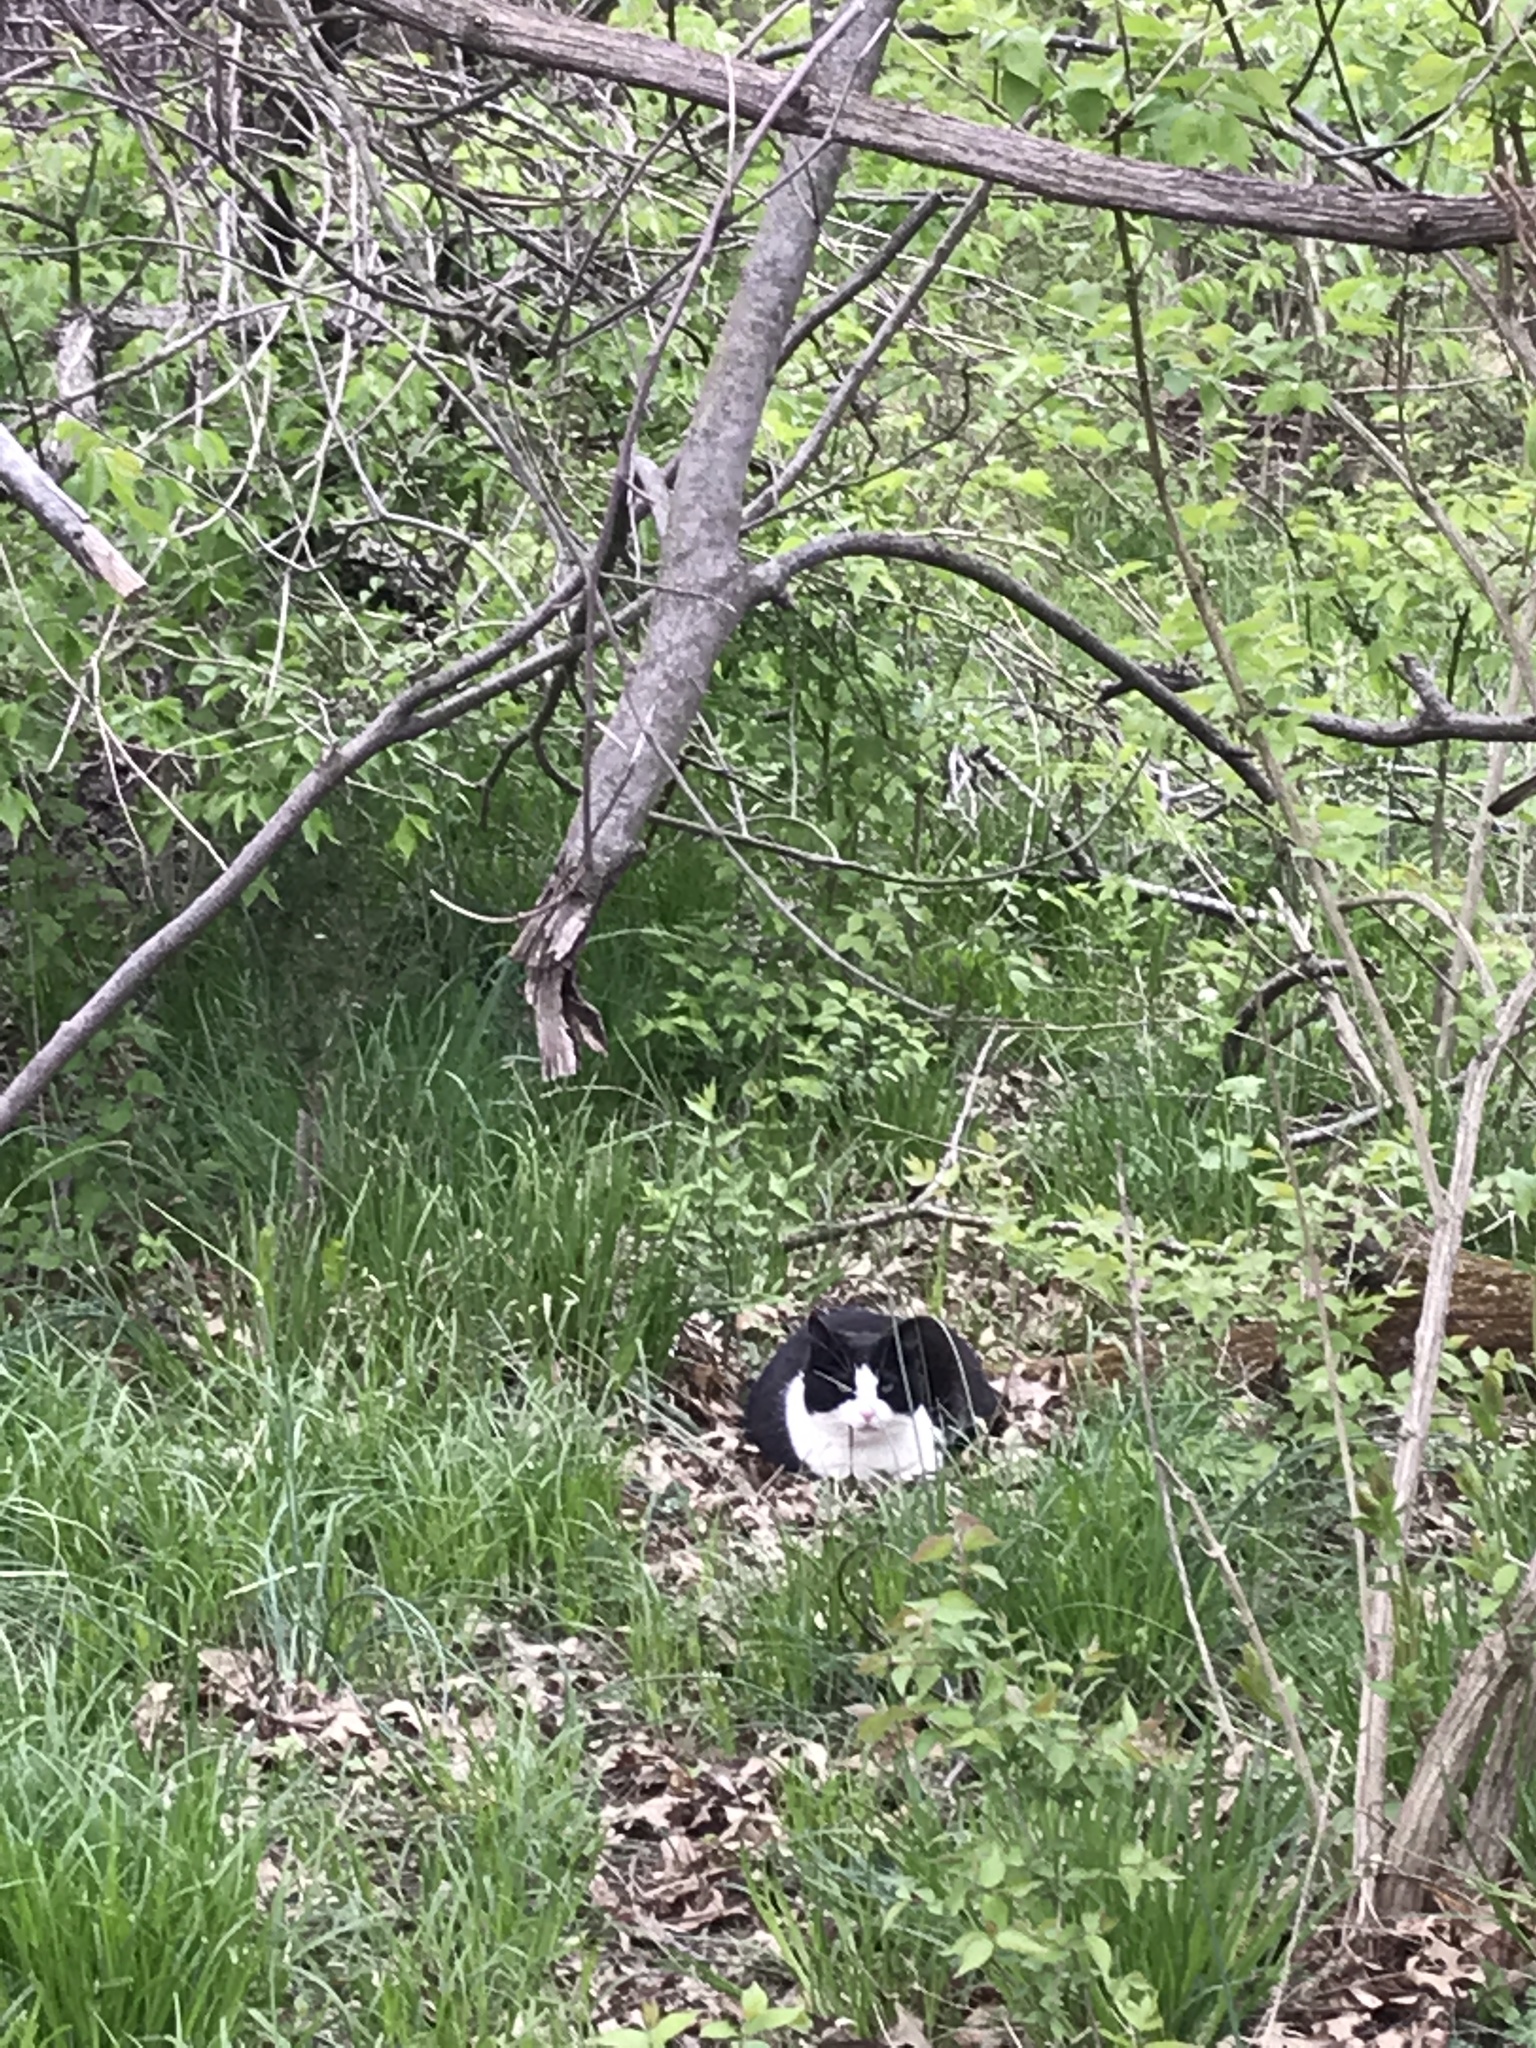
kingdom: Animalia
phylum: Chordata
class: Mammalia
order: Carnivora
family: Felidae
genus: Felis
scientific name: Felis catus
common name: Domestic cat
